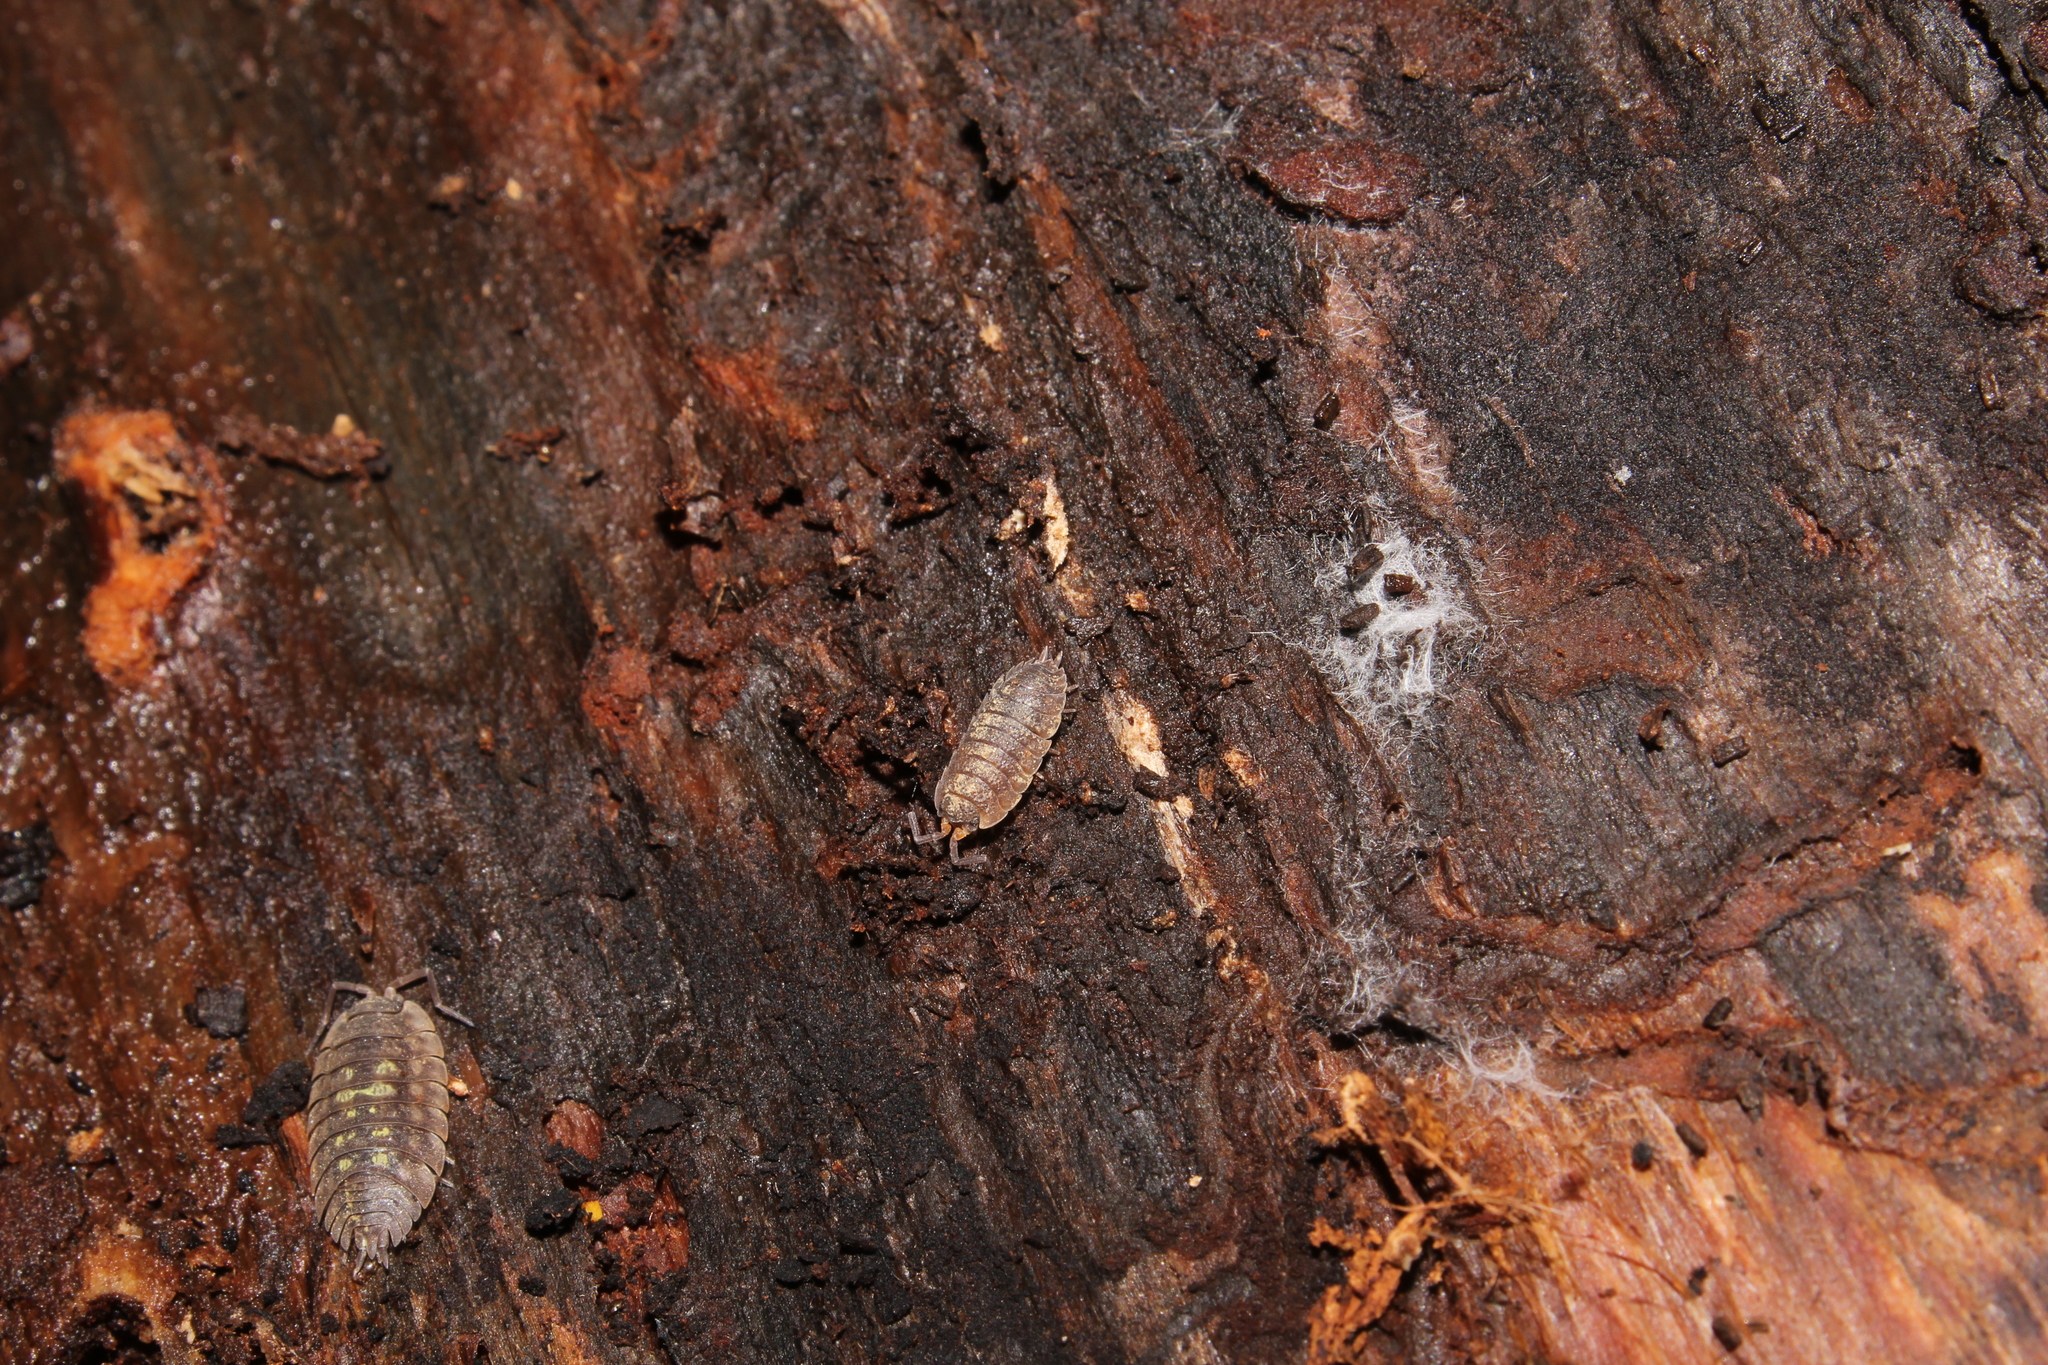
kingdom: Animalia
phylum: Arthropoda
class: Malacostraca
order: Isopoda
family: Porcellionidae
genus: Porcellio
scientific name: Porcellio scaber
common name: Common rough woodlouse
